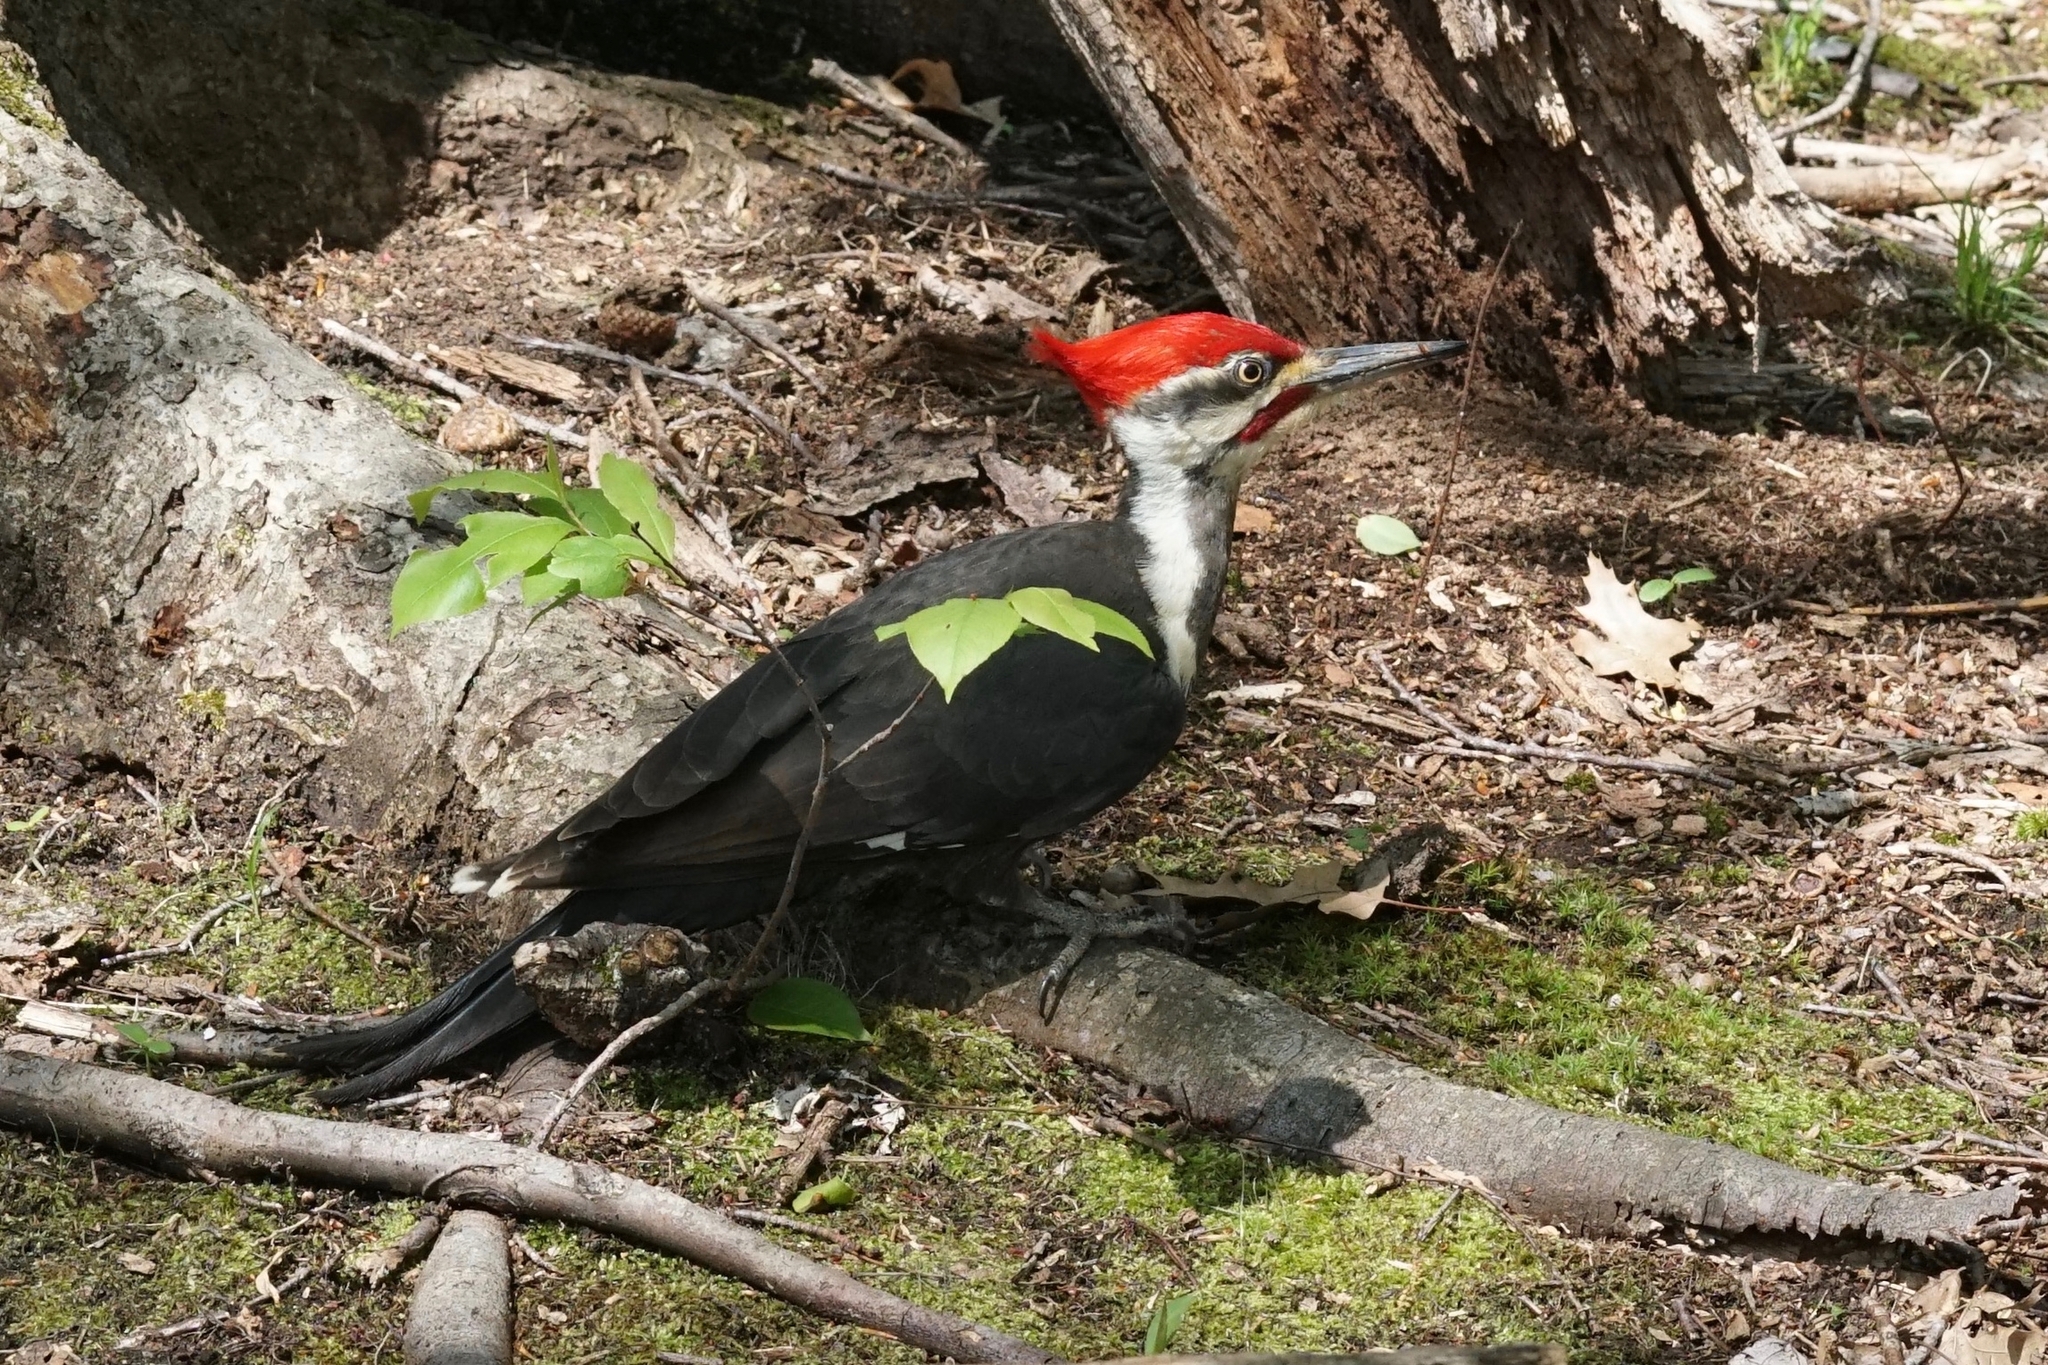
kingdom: Animalia
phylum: Chordata
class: Aves
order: Piciformes
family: Picidae
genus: Dryocopus
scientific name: Dryocopus pileatus
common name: Pileated woodpecker
